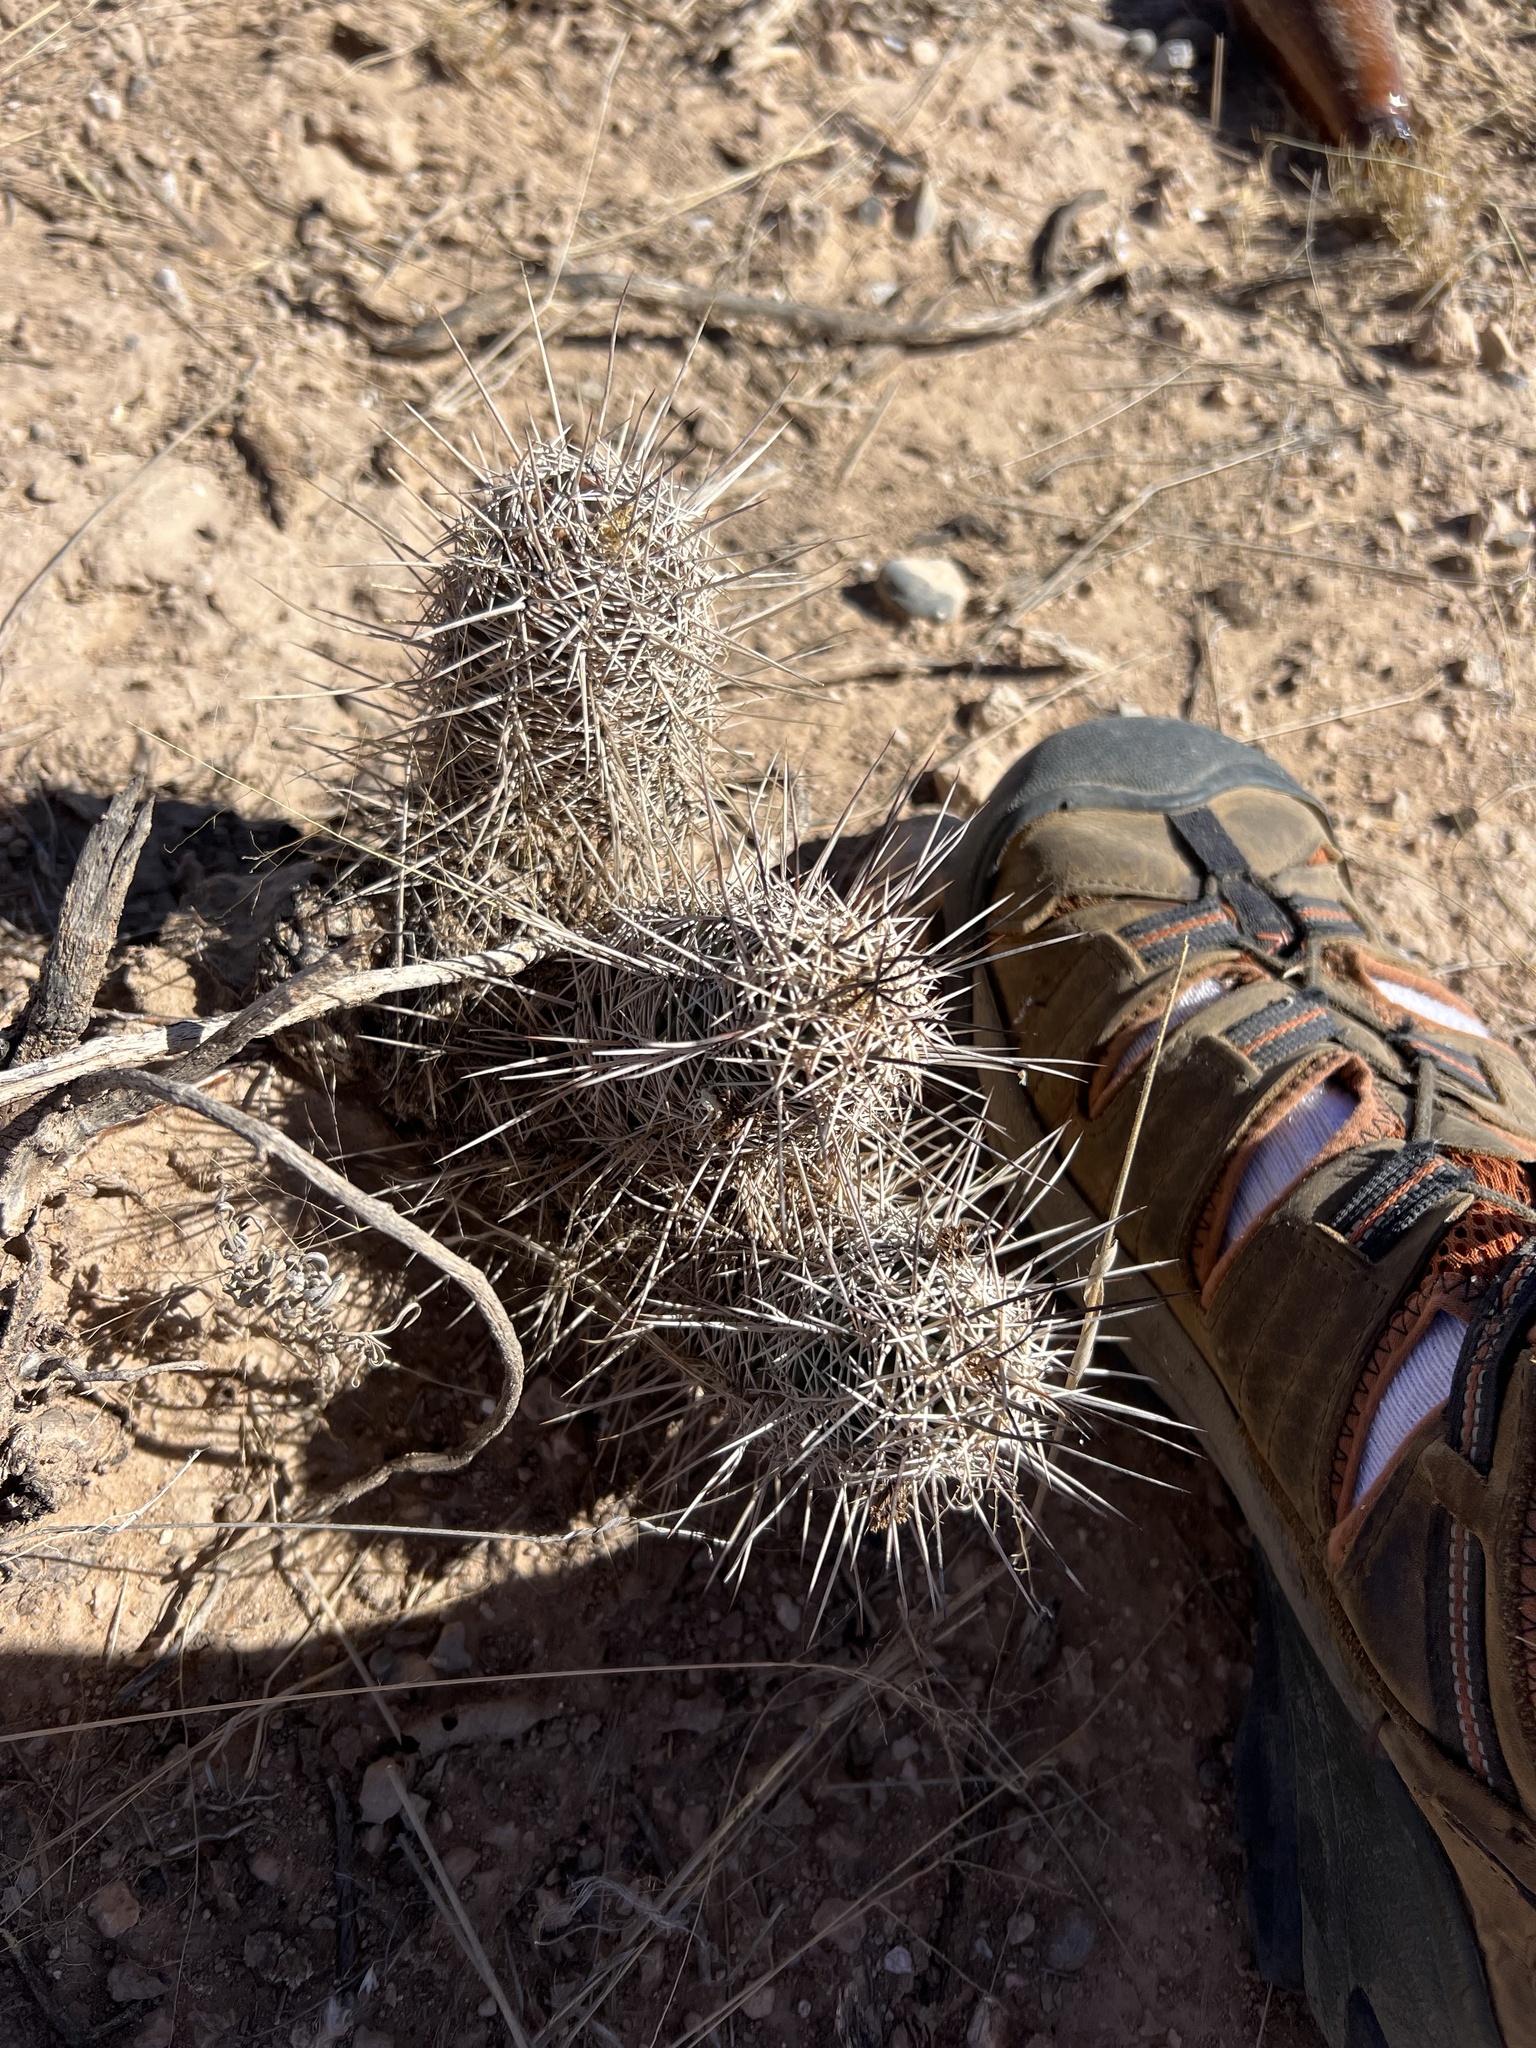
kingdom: Plantae
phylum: Tracheophyta
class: Magnoliopsida
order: Caryophyllales
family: Cactaceae
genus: Echinocereus
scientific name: Echinocereus fendleri
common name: Fendler's hedgehog cactus
